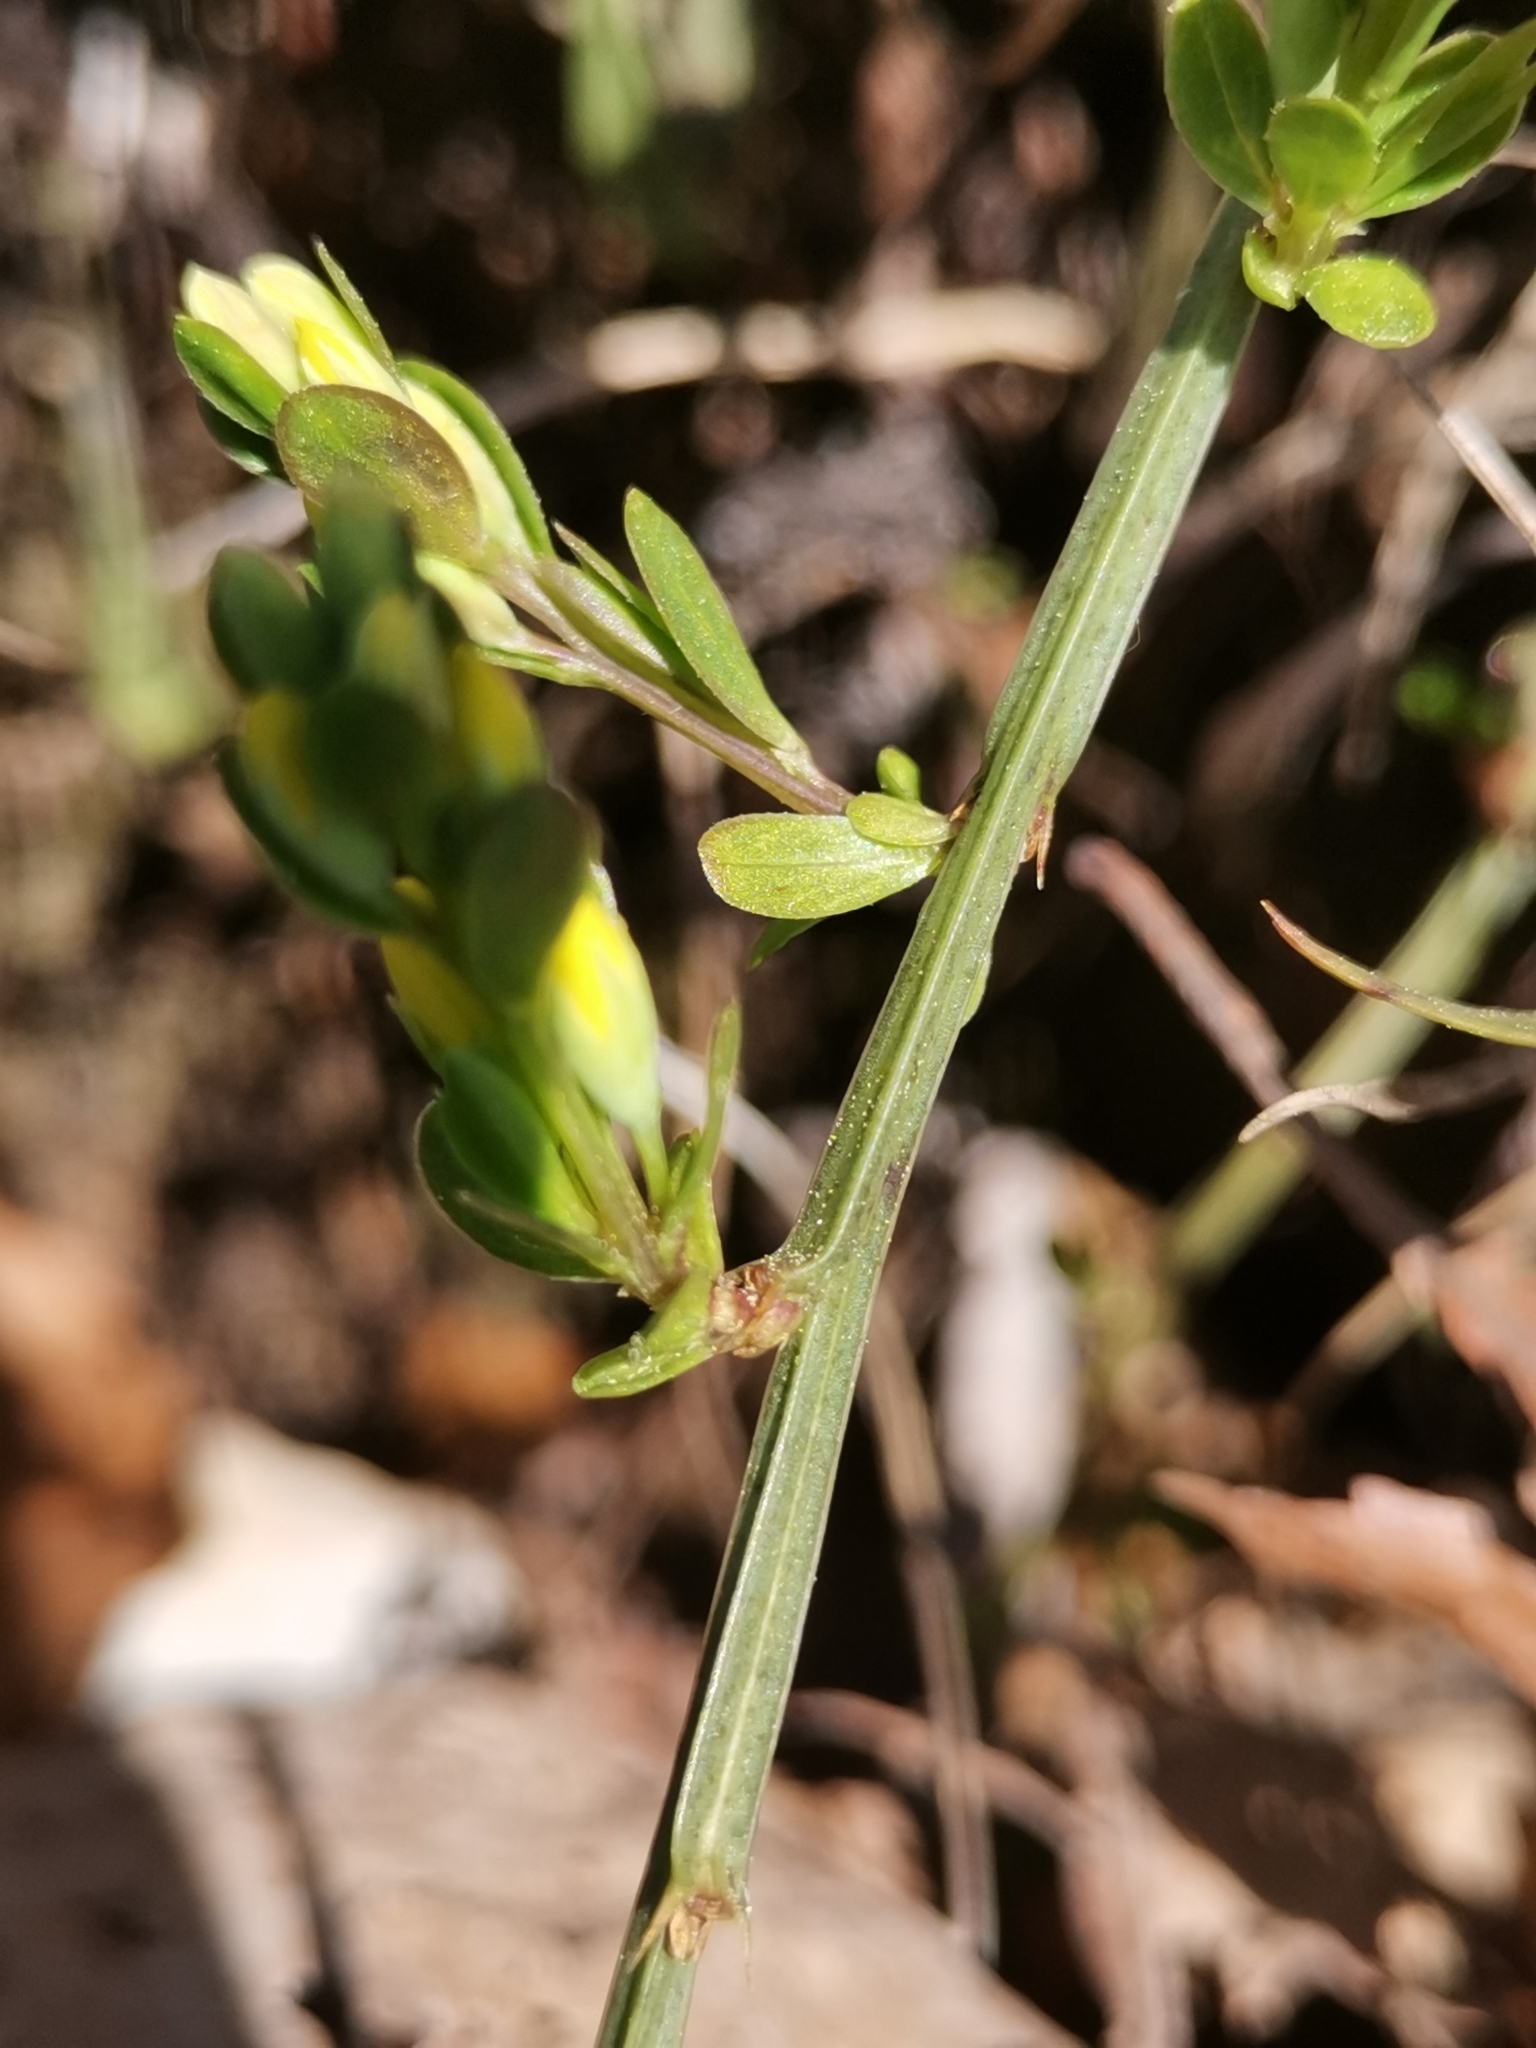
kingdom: Plantae
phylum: Tracheophyta
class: Magnoliopsida
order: Fabales
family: Fabaceae
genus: Genista
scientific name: Genista januensis
